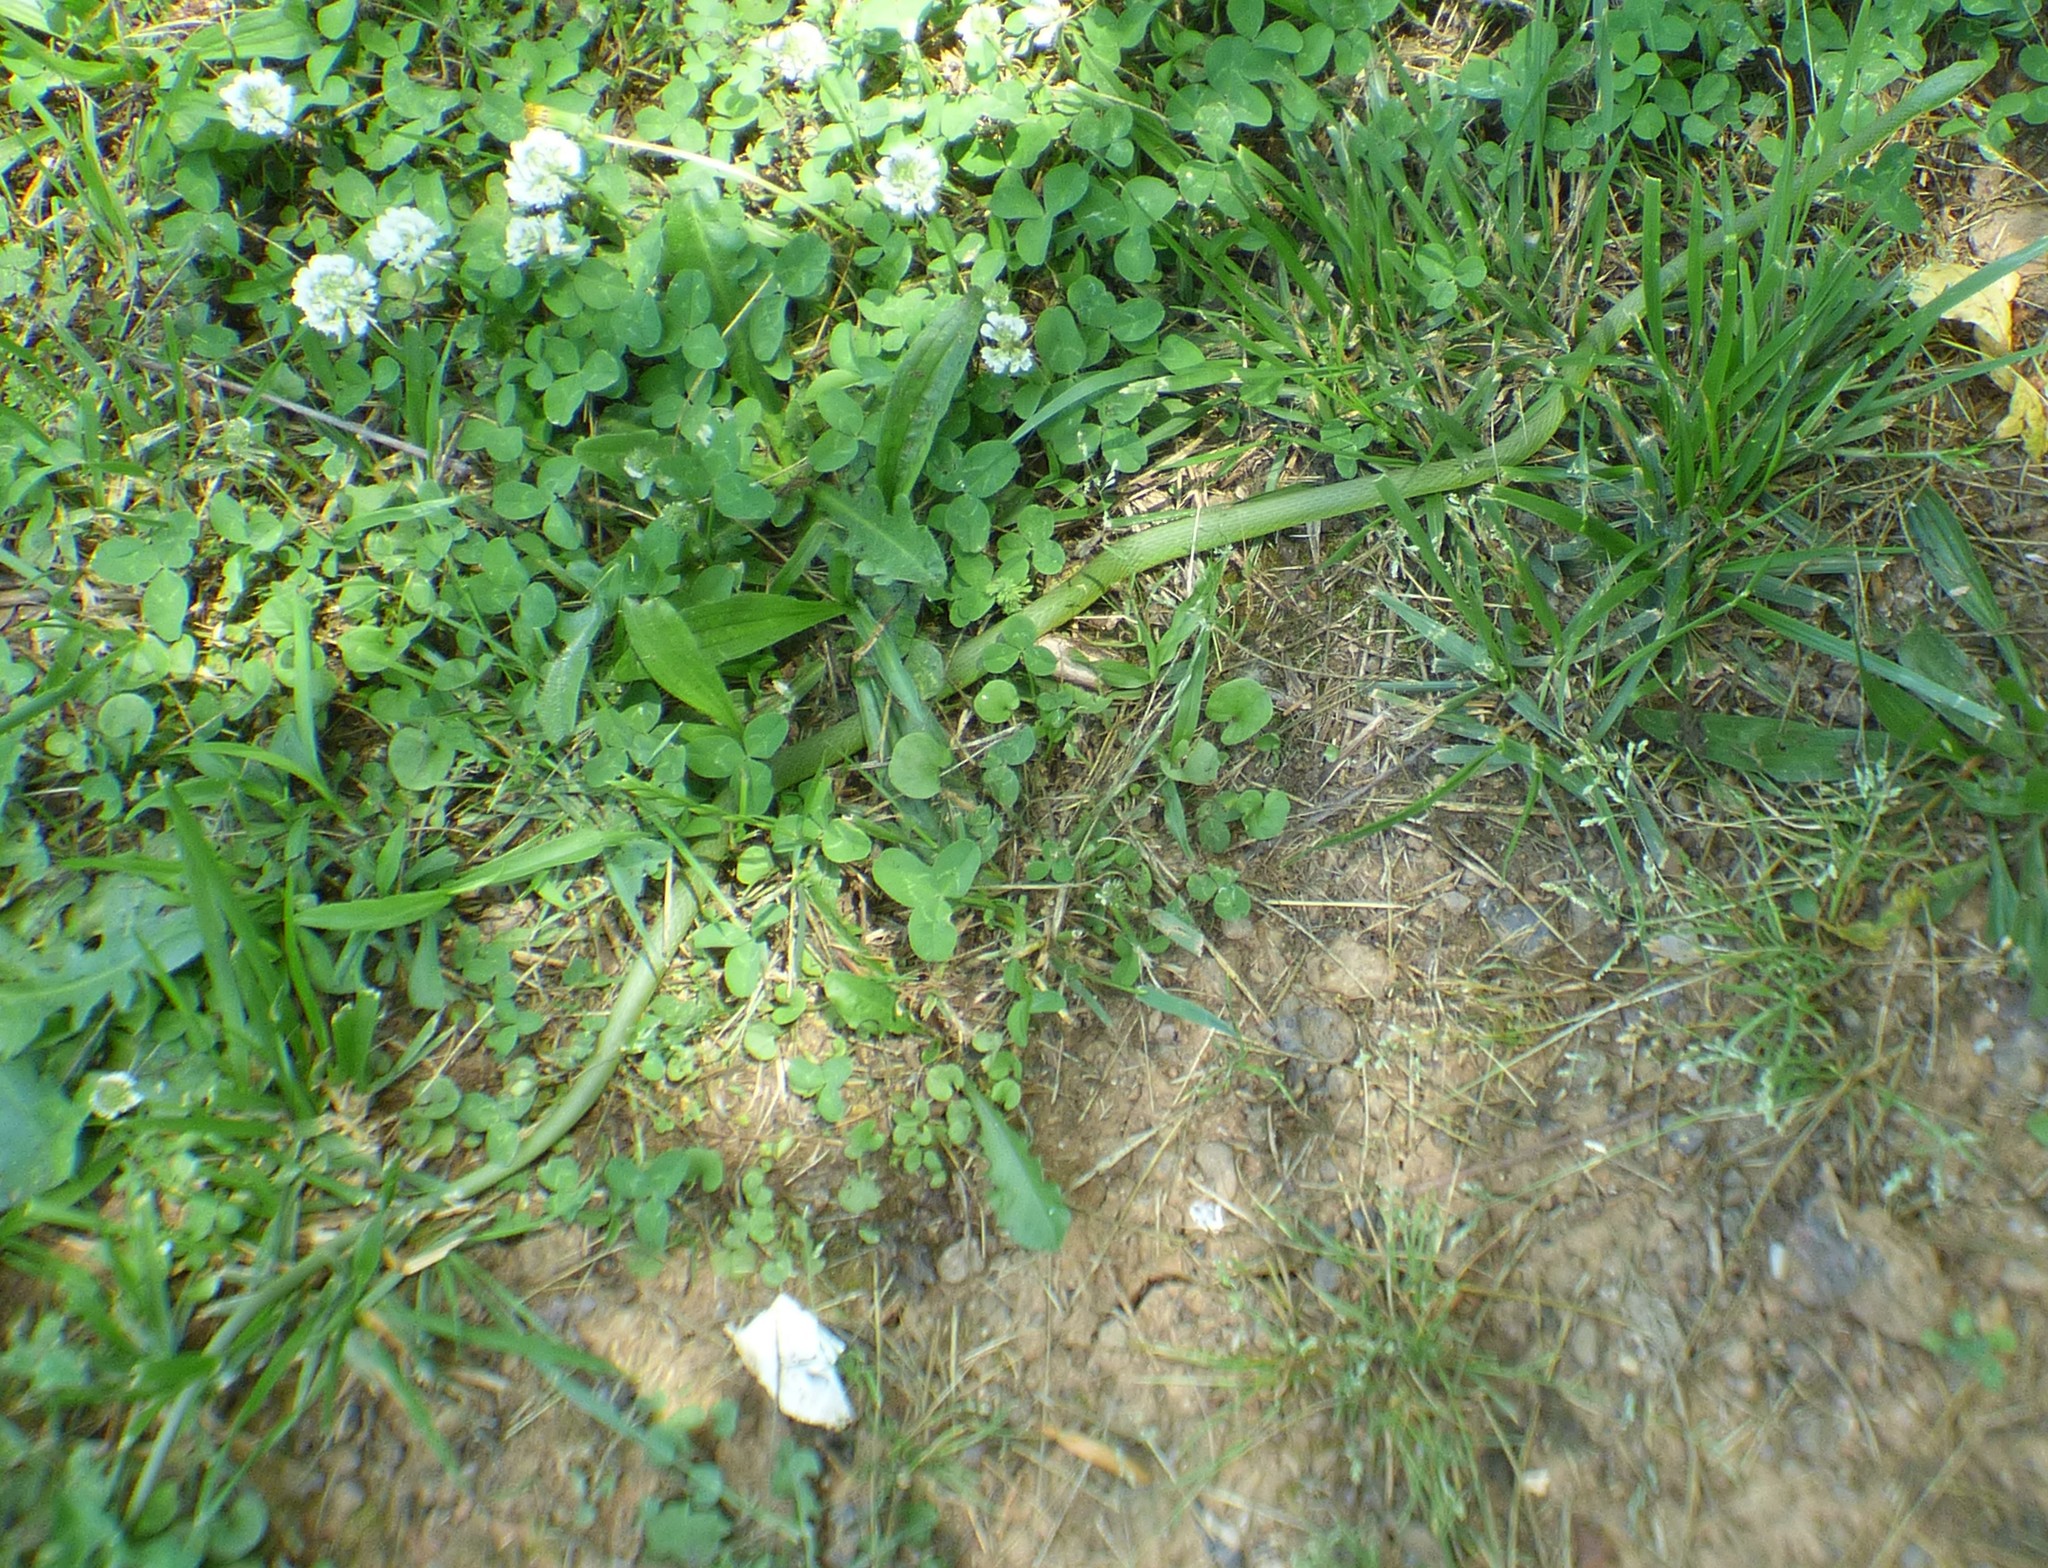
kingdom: Animalia
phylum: Chordata
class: Squamata
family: Colubridae
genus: Opheodrys
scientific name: Opheodrys aestivus
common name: Rough greensnake
